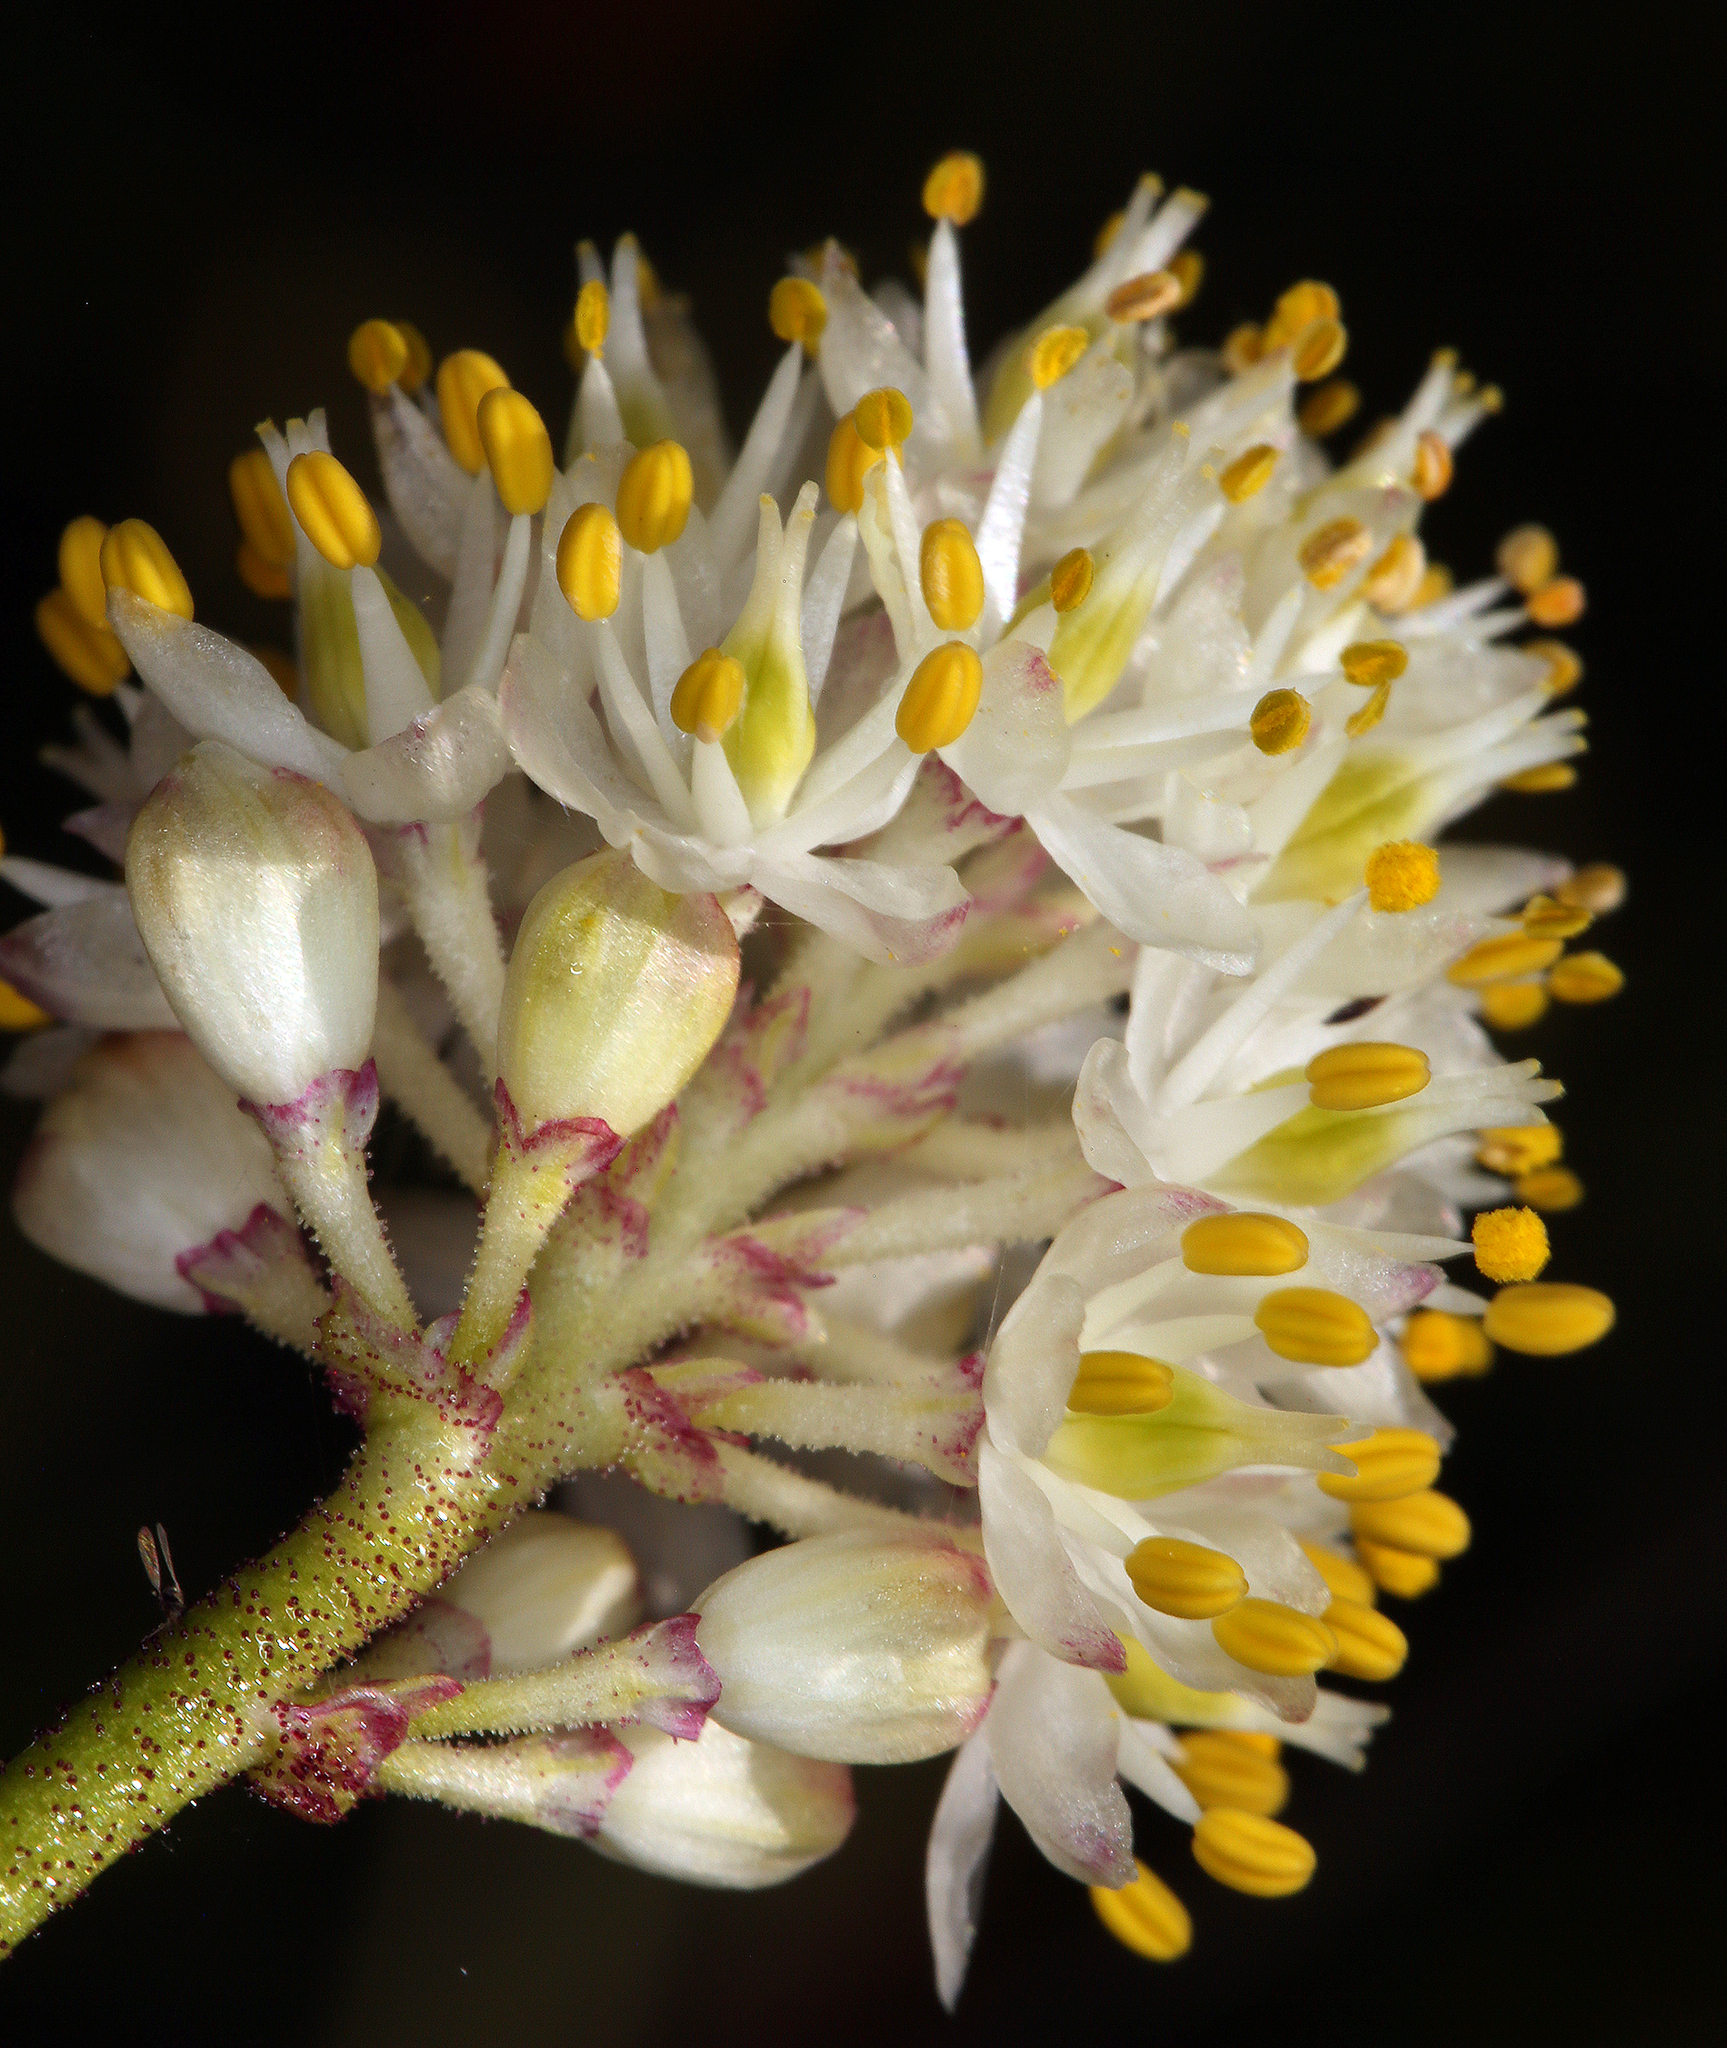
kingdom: Plantae
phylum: Tracheophyta
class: Liliopsida
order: Alismatales
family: Tofieldiaceae
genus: Triantha
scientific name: Triantha occidentalis
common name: Western false asphodel
